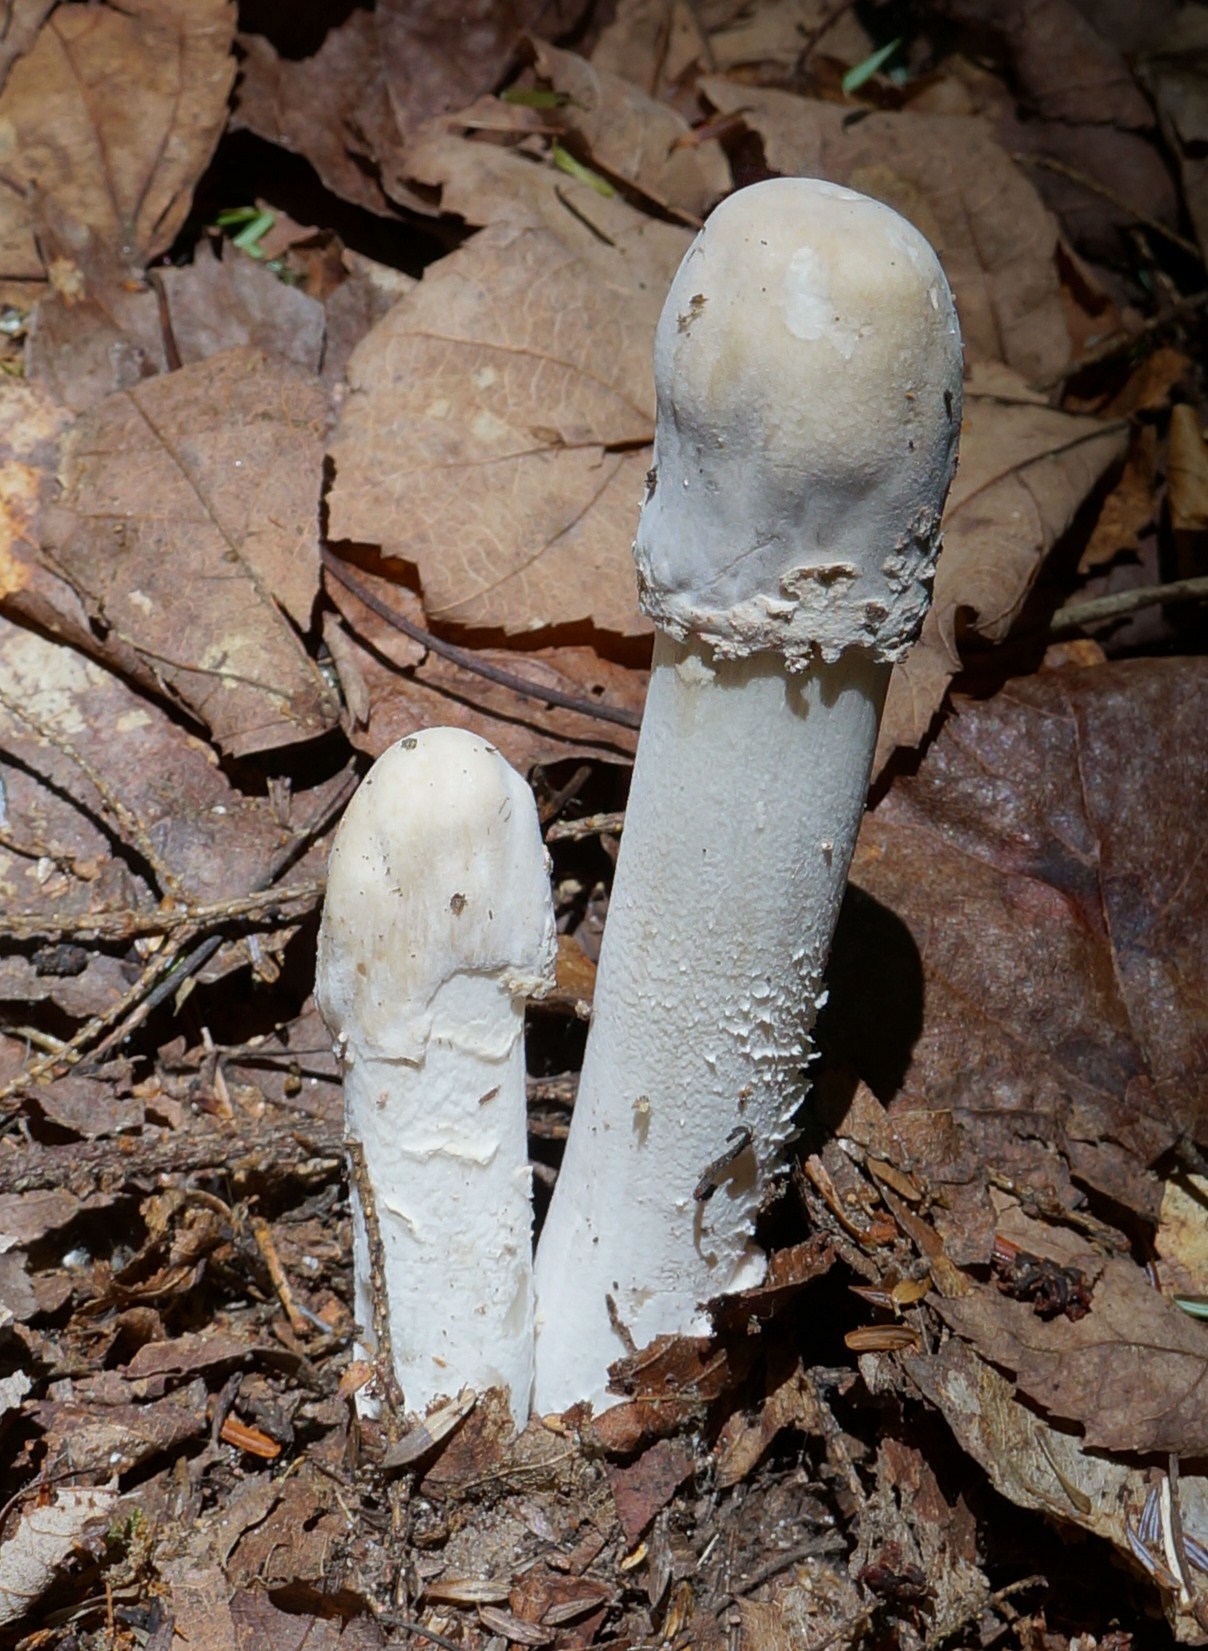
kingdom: Fungi
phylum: Ascomycota
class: Sordariomycetes
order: Hypocreales
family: Hypocreaceae
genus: Hypomyces
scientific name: Hypomyces hyalinus
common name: Amanita mold
